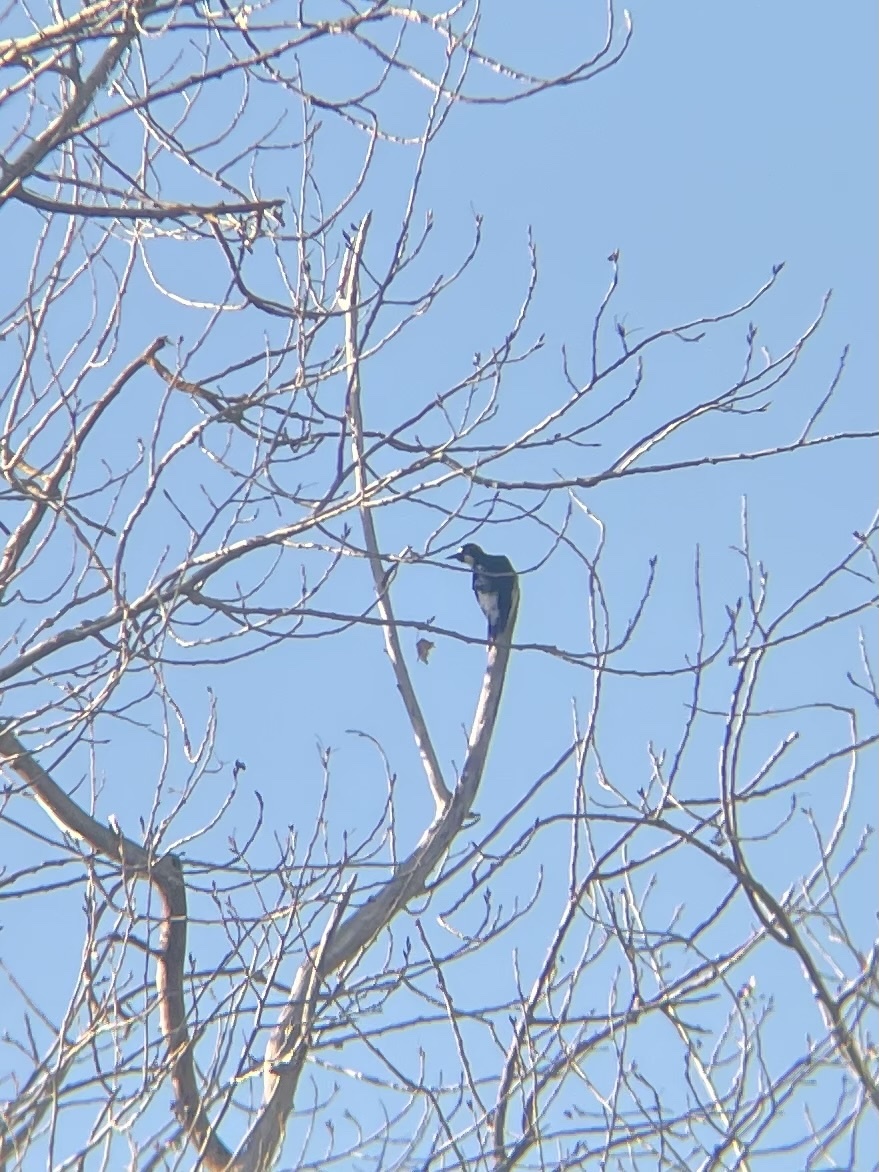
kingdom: Animalia
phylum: Chordata
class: Aves
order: Piciformes
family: Picidae
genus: Melanerpes
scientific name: Melanerpes formicivorus
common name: Acorn woodpecker
